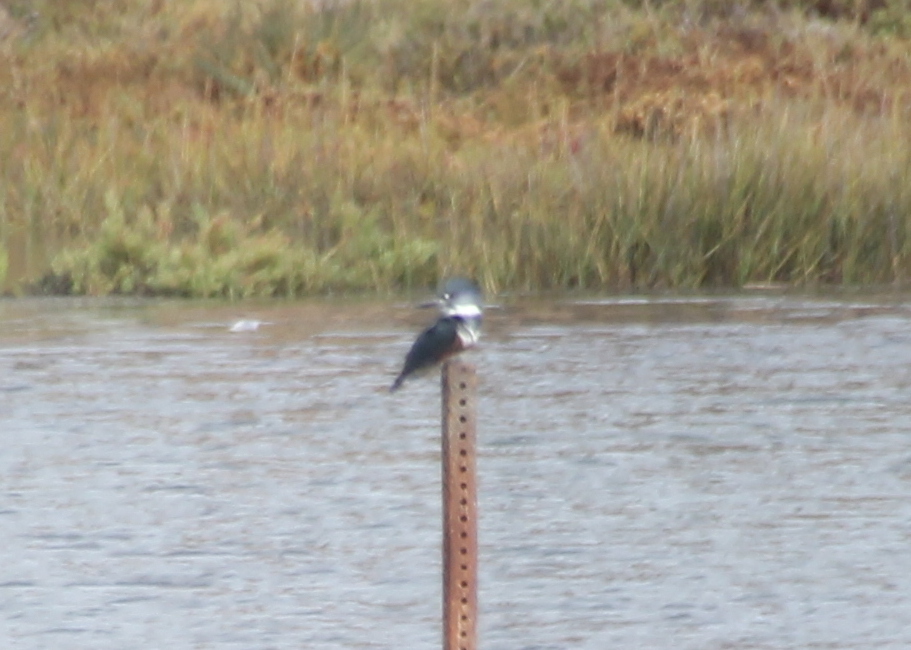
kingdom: Animalia
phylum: Chordata
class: Aves
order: Coraciiformes
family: Alcedinidae
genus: Megaceryle
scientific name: Megaceryle alcyon
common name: Belted kingfisher
